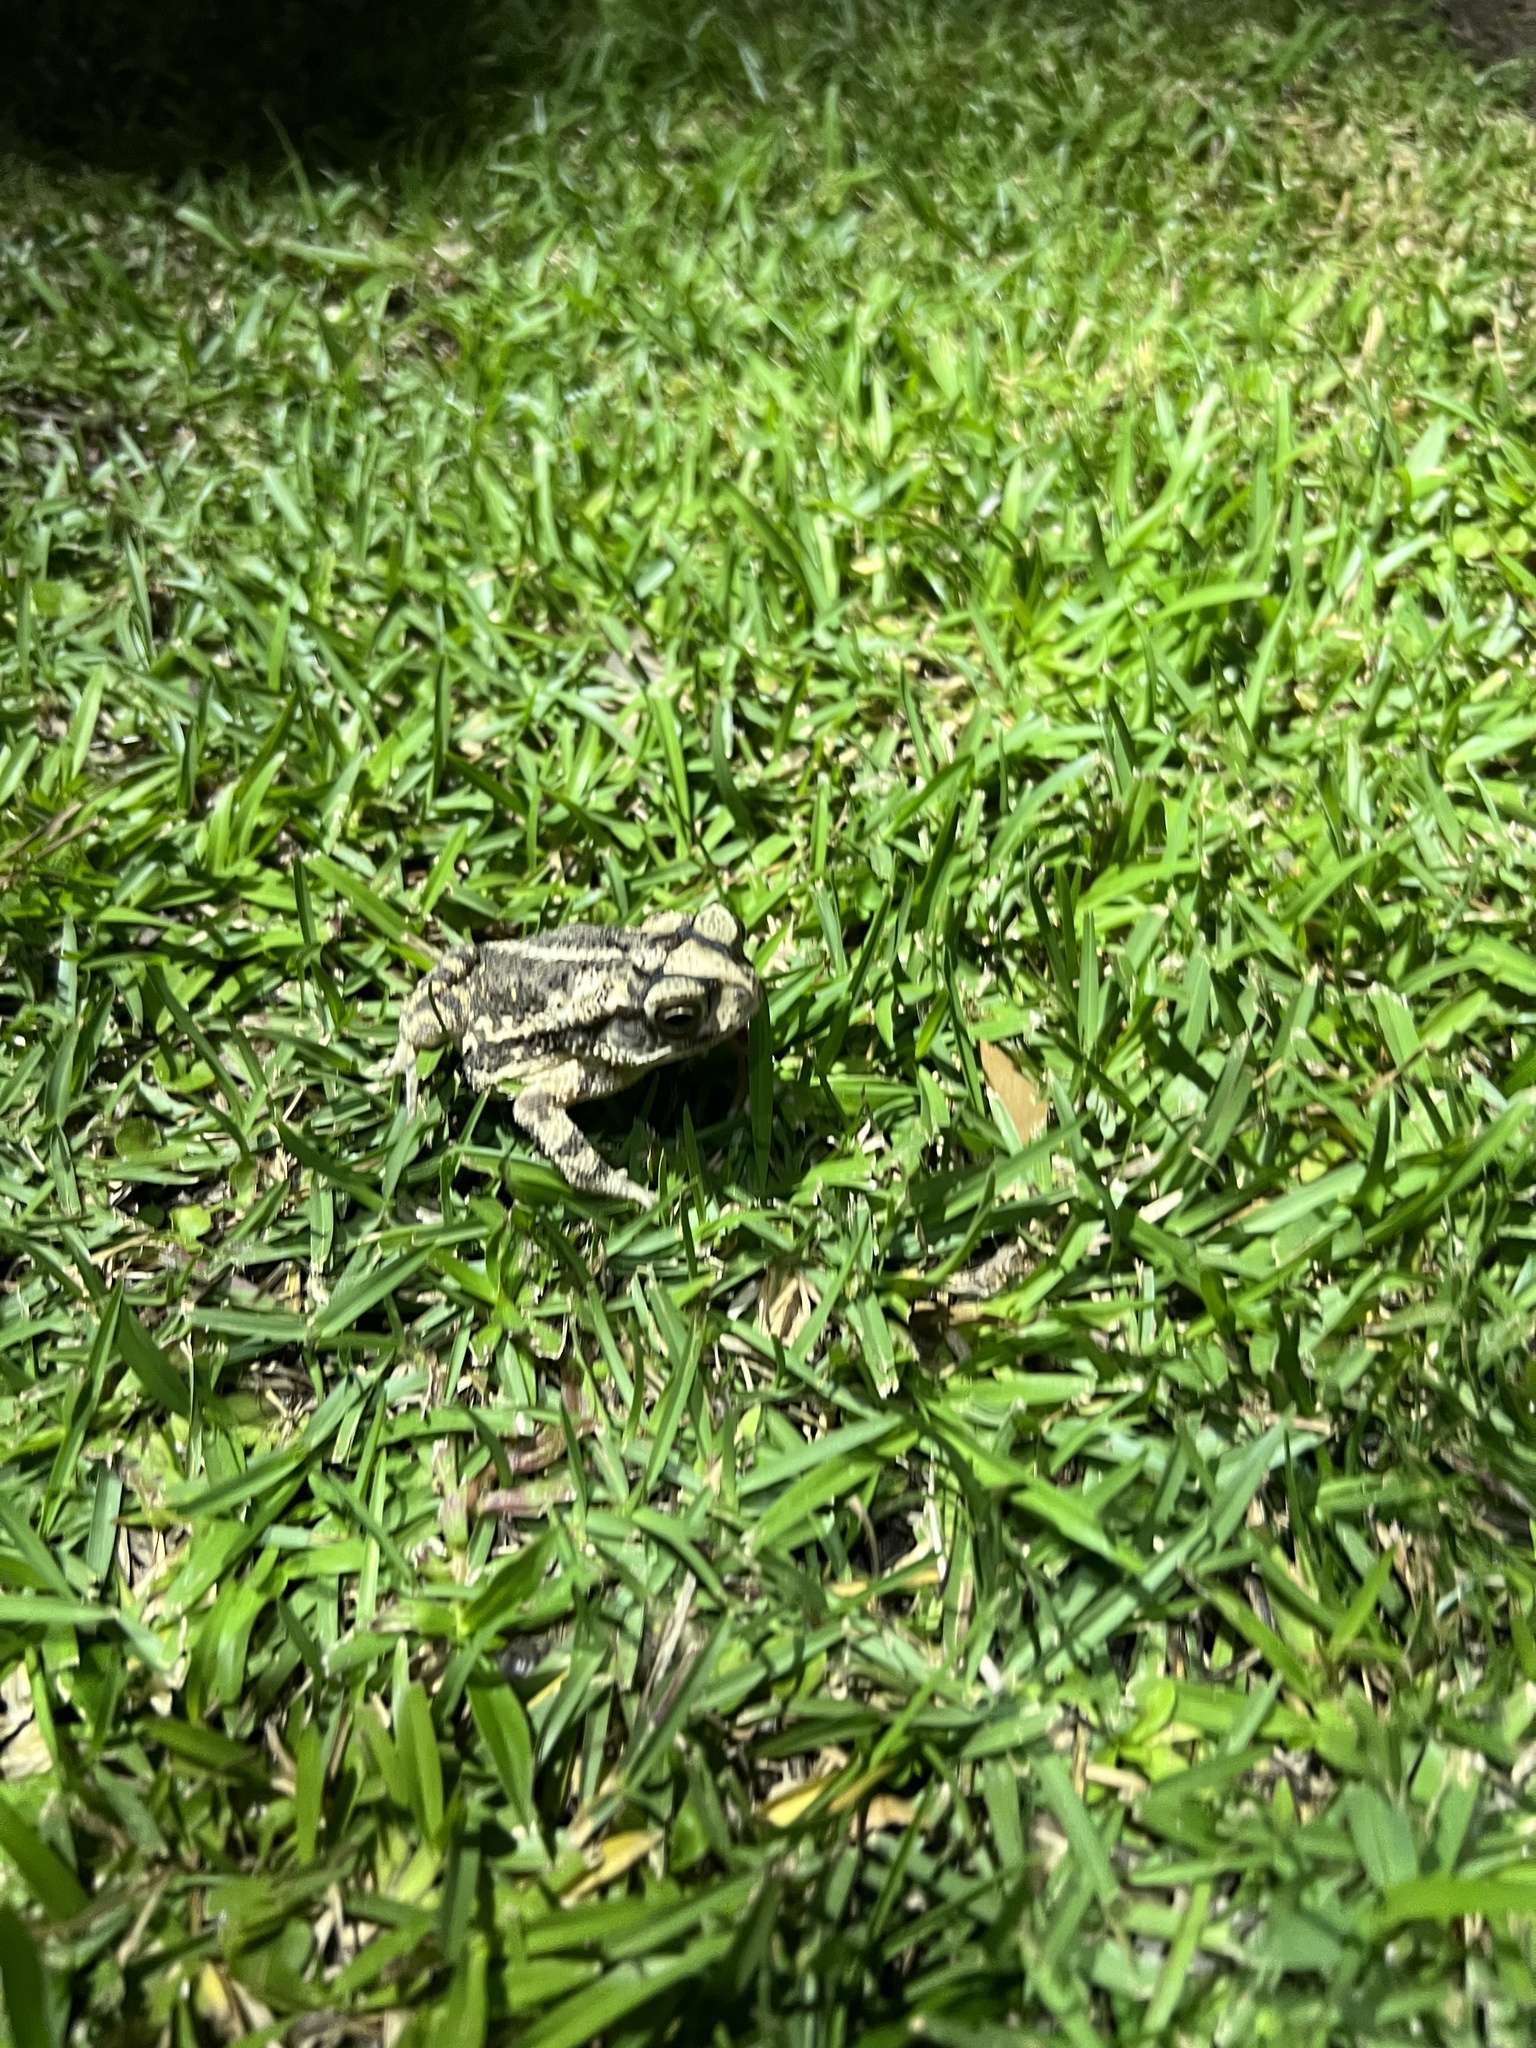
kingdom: Animalia
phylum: Chordata
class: Amphibia
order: Anura
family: Bufonidae
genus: Incilius
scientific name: Incilius nebulifer
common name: Gulf coast toad
